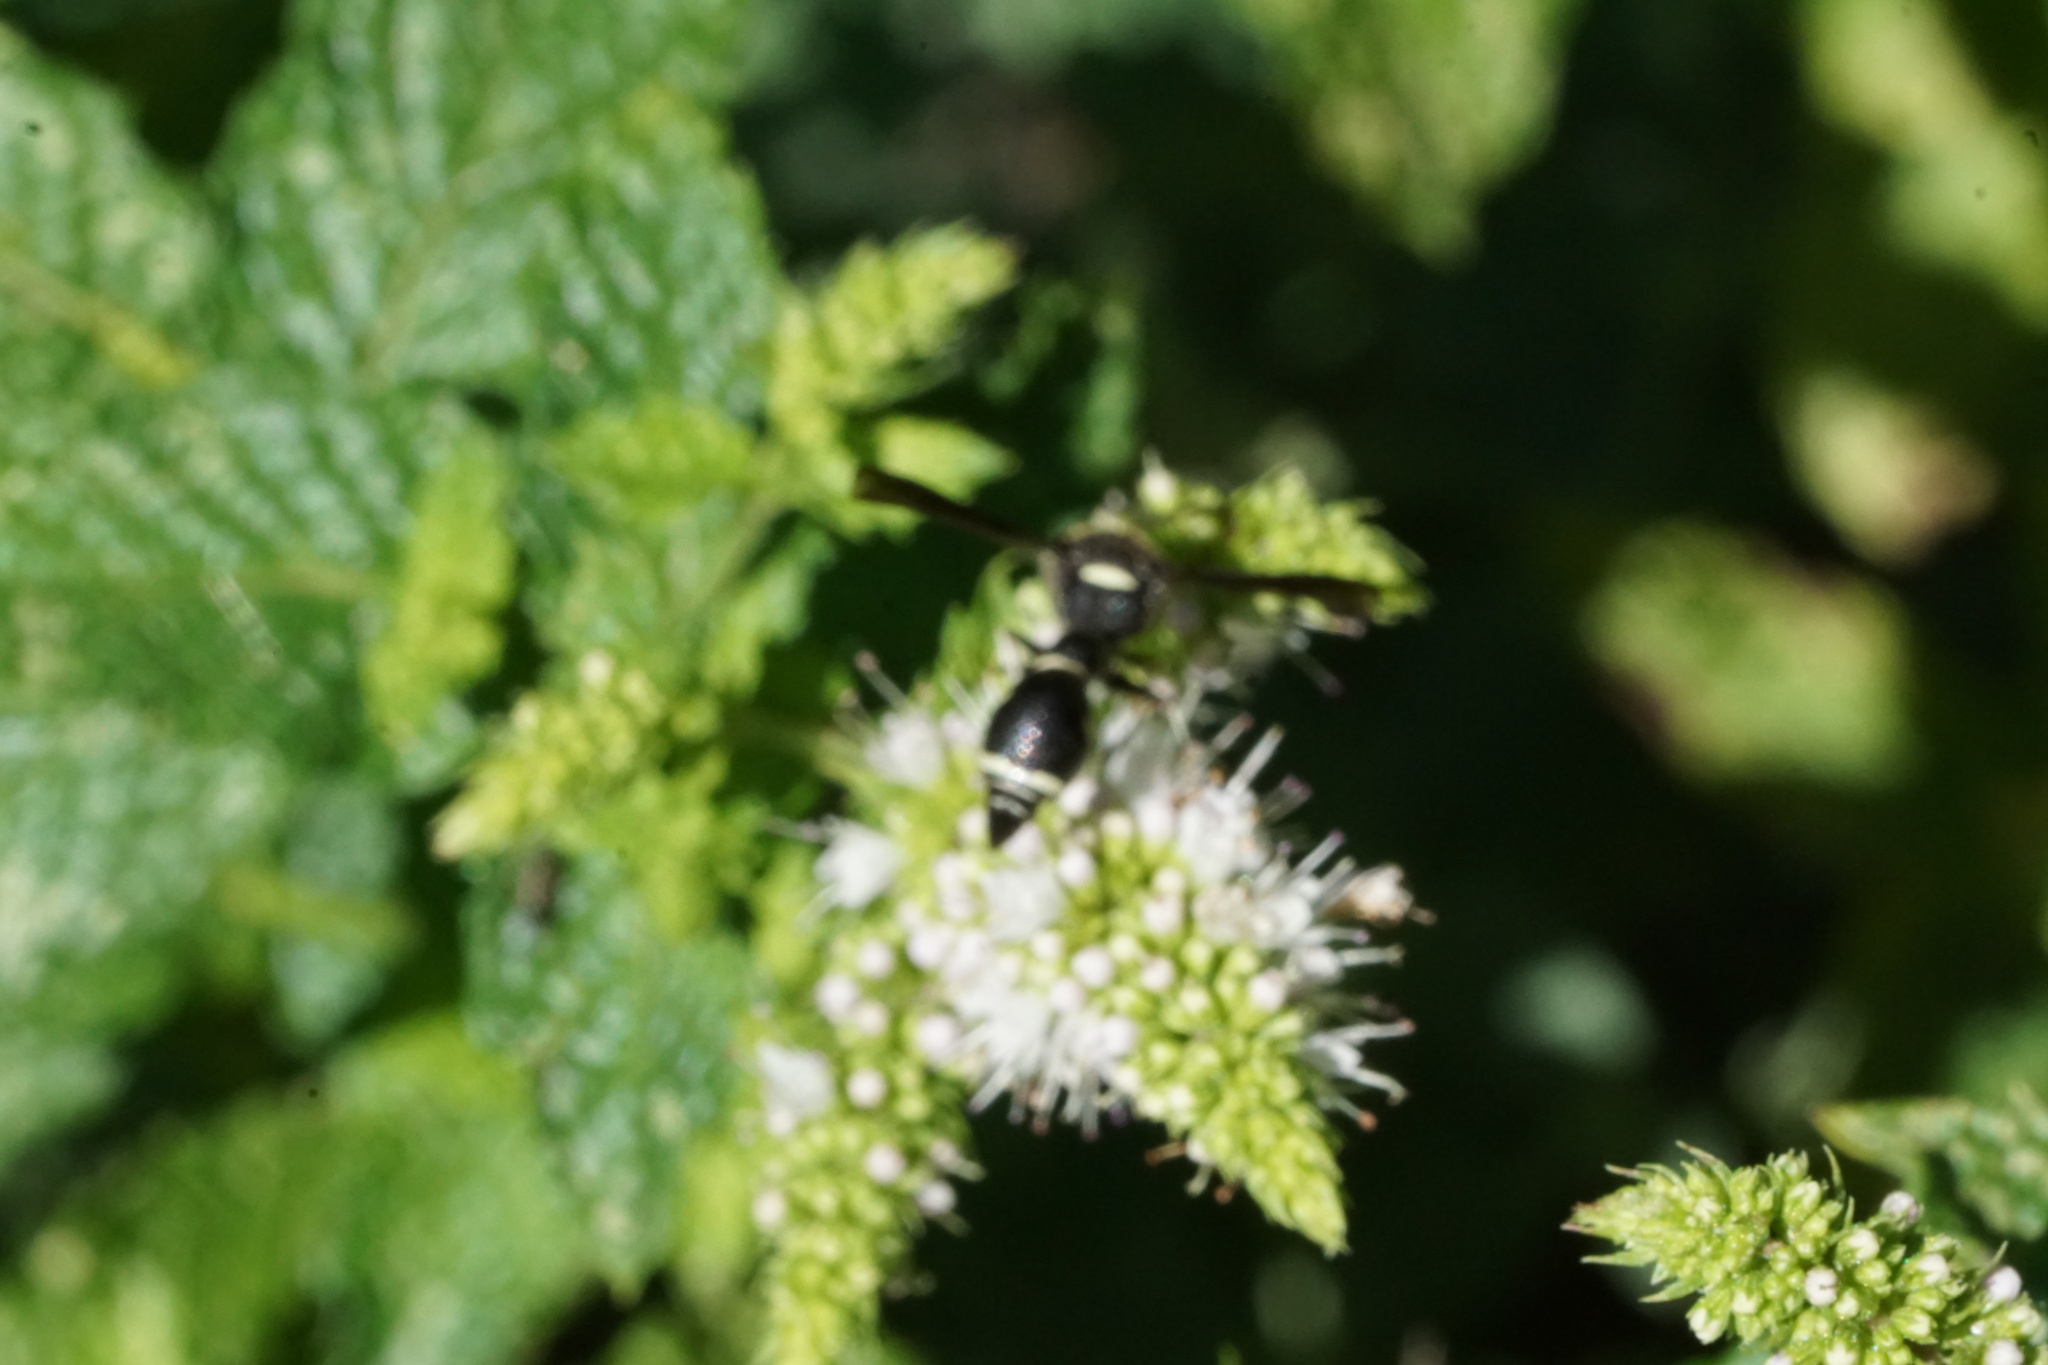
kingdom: Animalia
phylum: Arthropoda
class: Insecta
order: Hymenoptera
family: Vespidae
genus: Eumenes
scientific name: Eumenes fraternus
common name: Fraternal potter wasp
